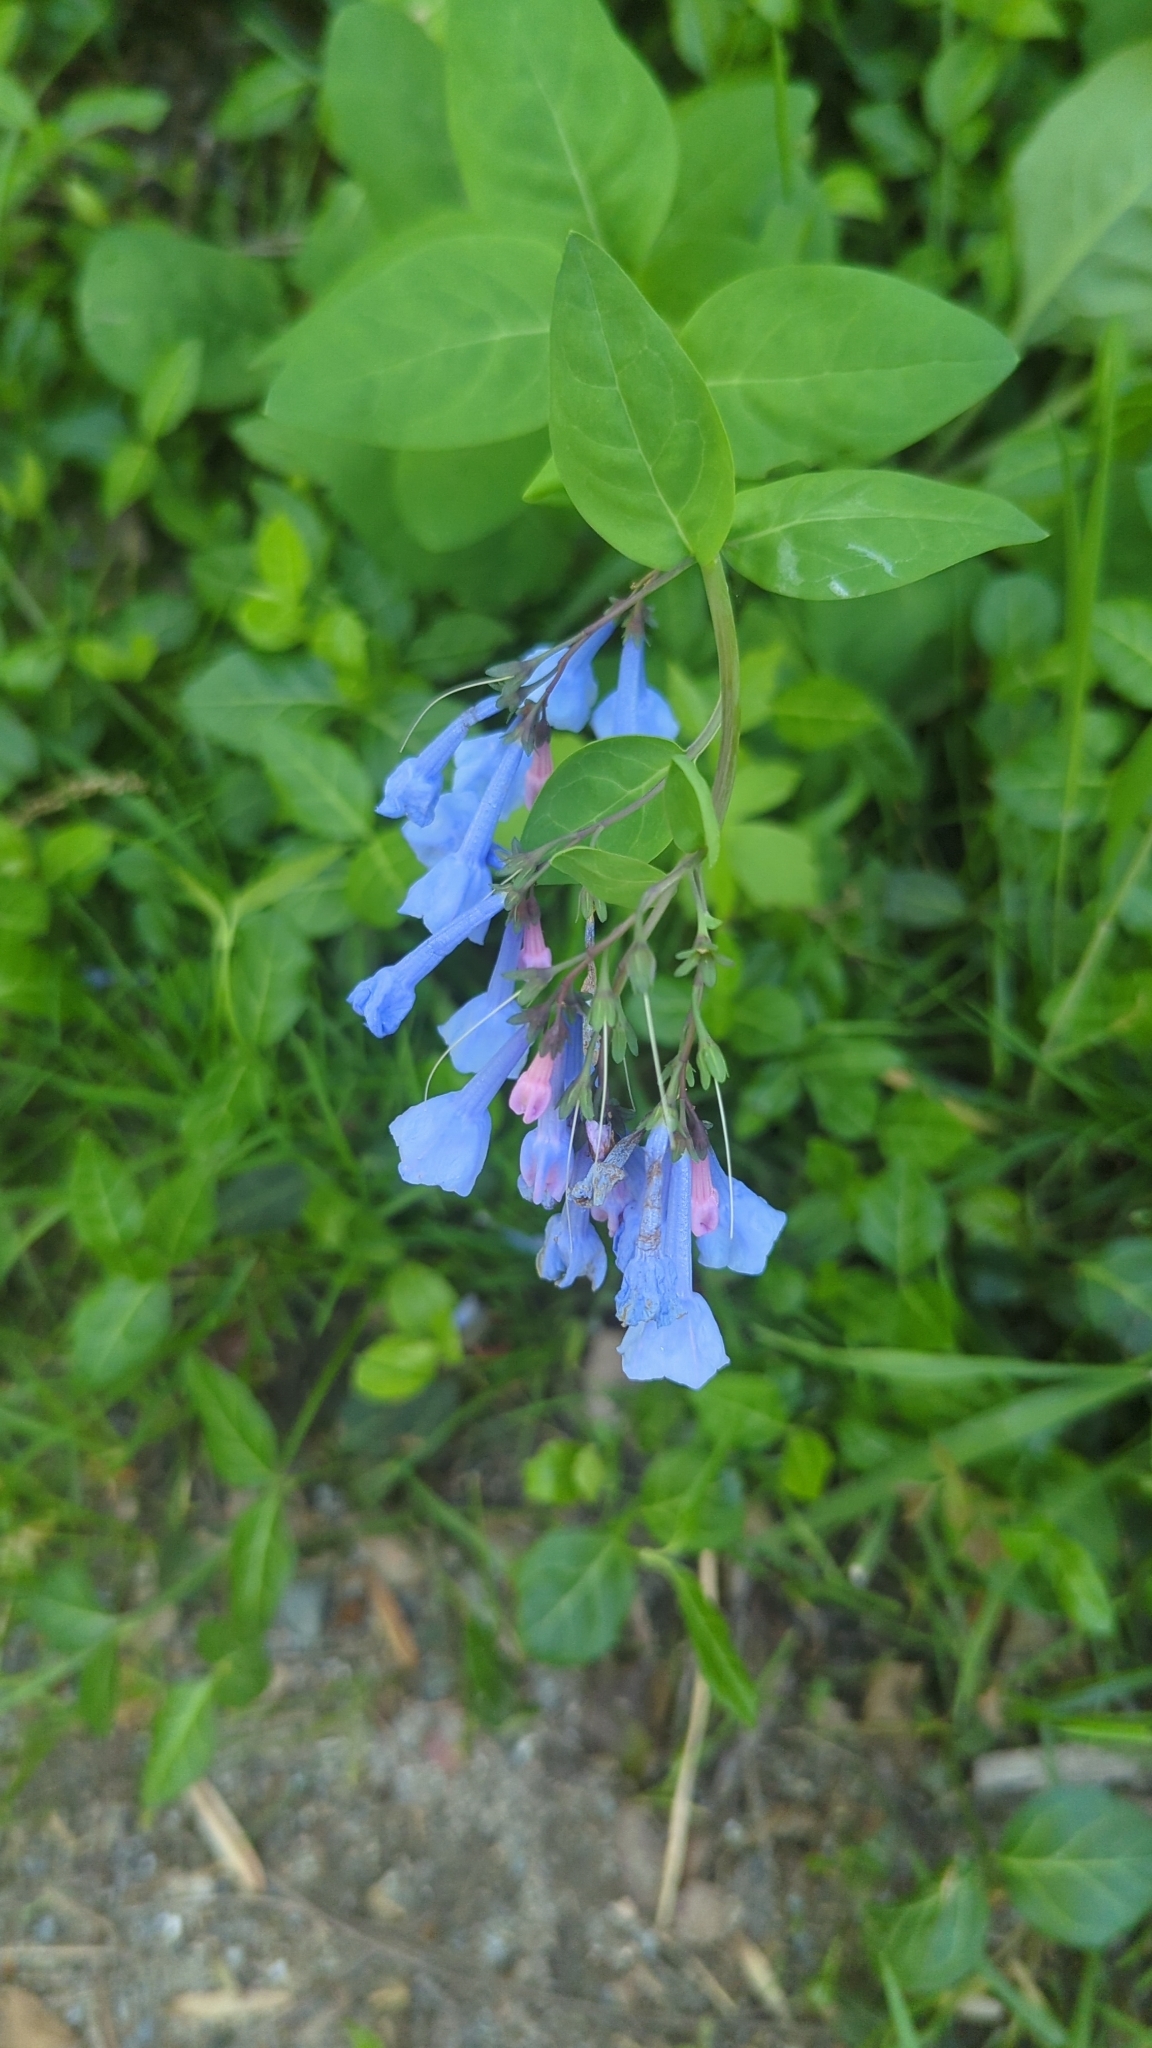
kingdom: Plantae
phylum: Tracheophyta
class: Magnoliopsida
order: Boraginales
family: Boraginaceae
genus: Mertensia
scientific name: Mertensia virginica
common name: Virginia bluebells
